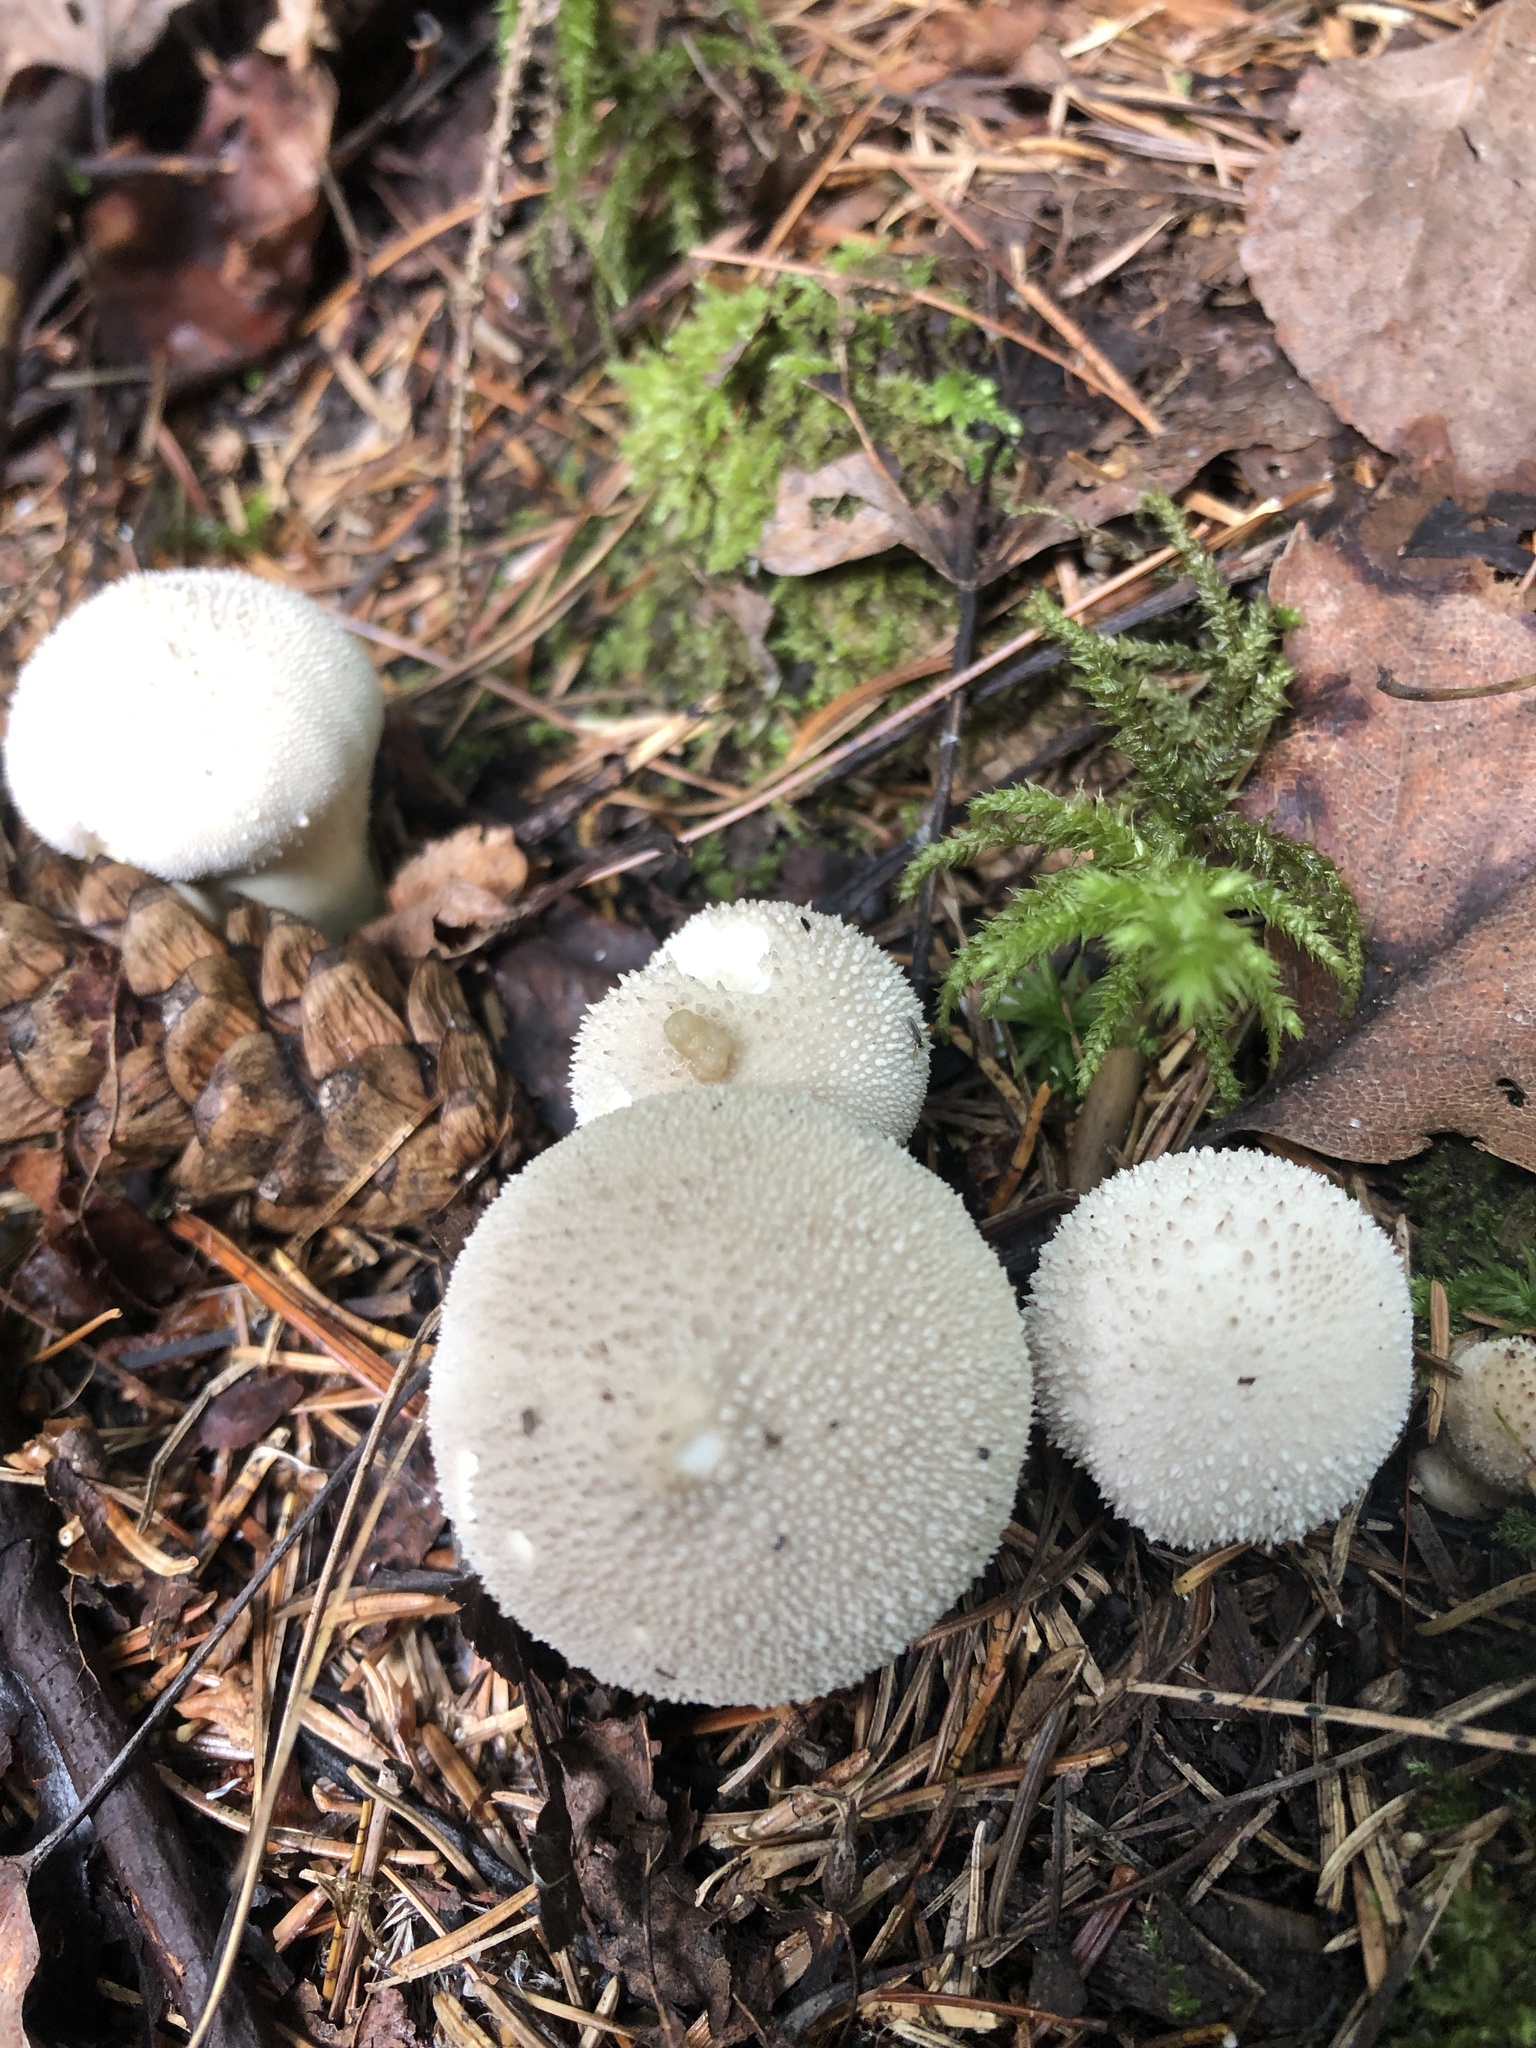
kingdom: Fungi
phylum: Basidiomycota
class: Agaricomycetes
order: Agaricales
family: Lycoperdaceae
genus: Lycoperdon
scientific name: Lycoperdon perlatum
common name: Common puffball
